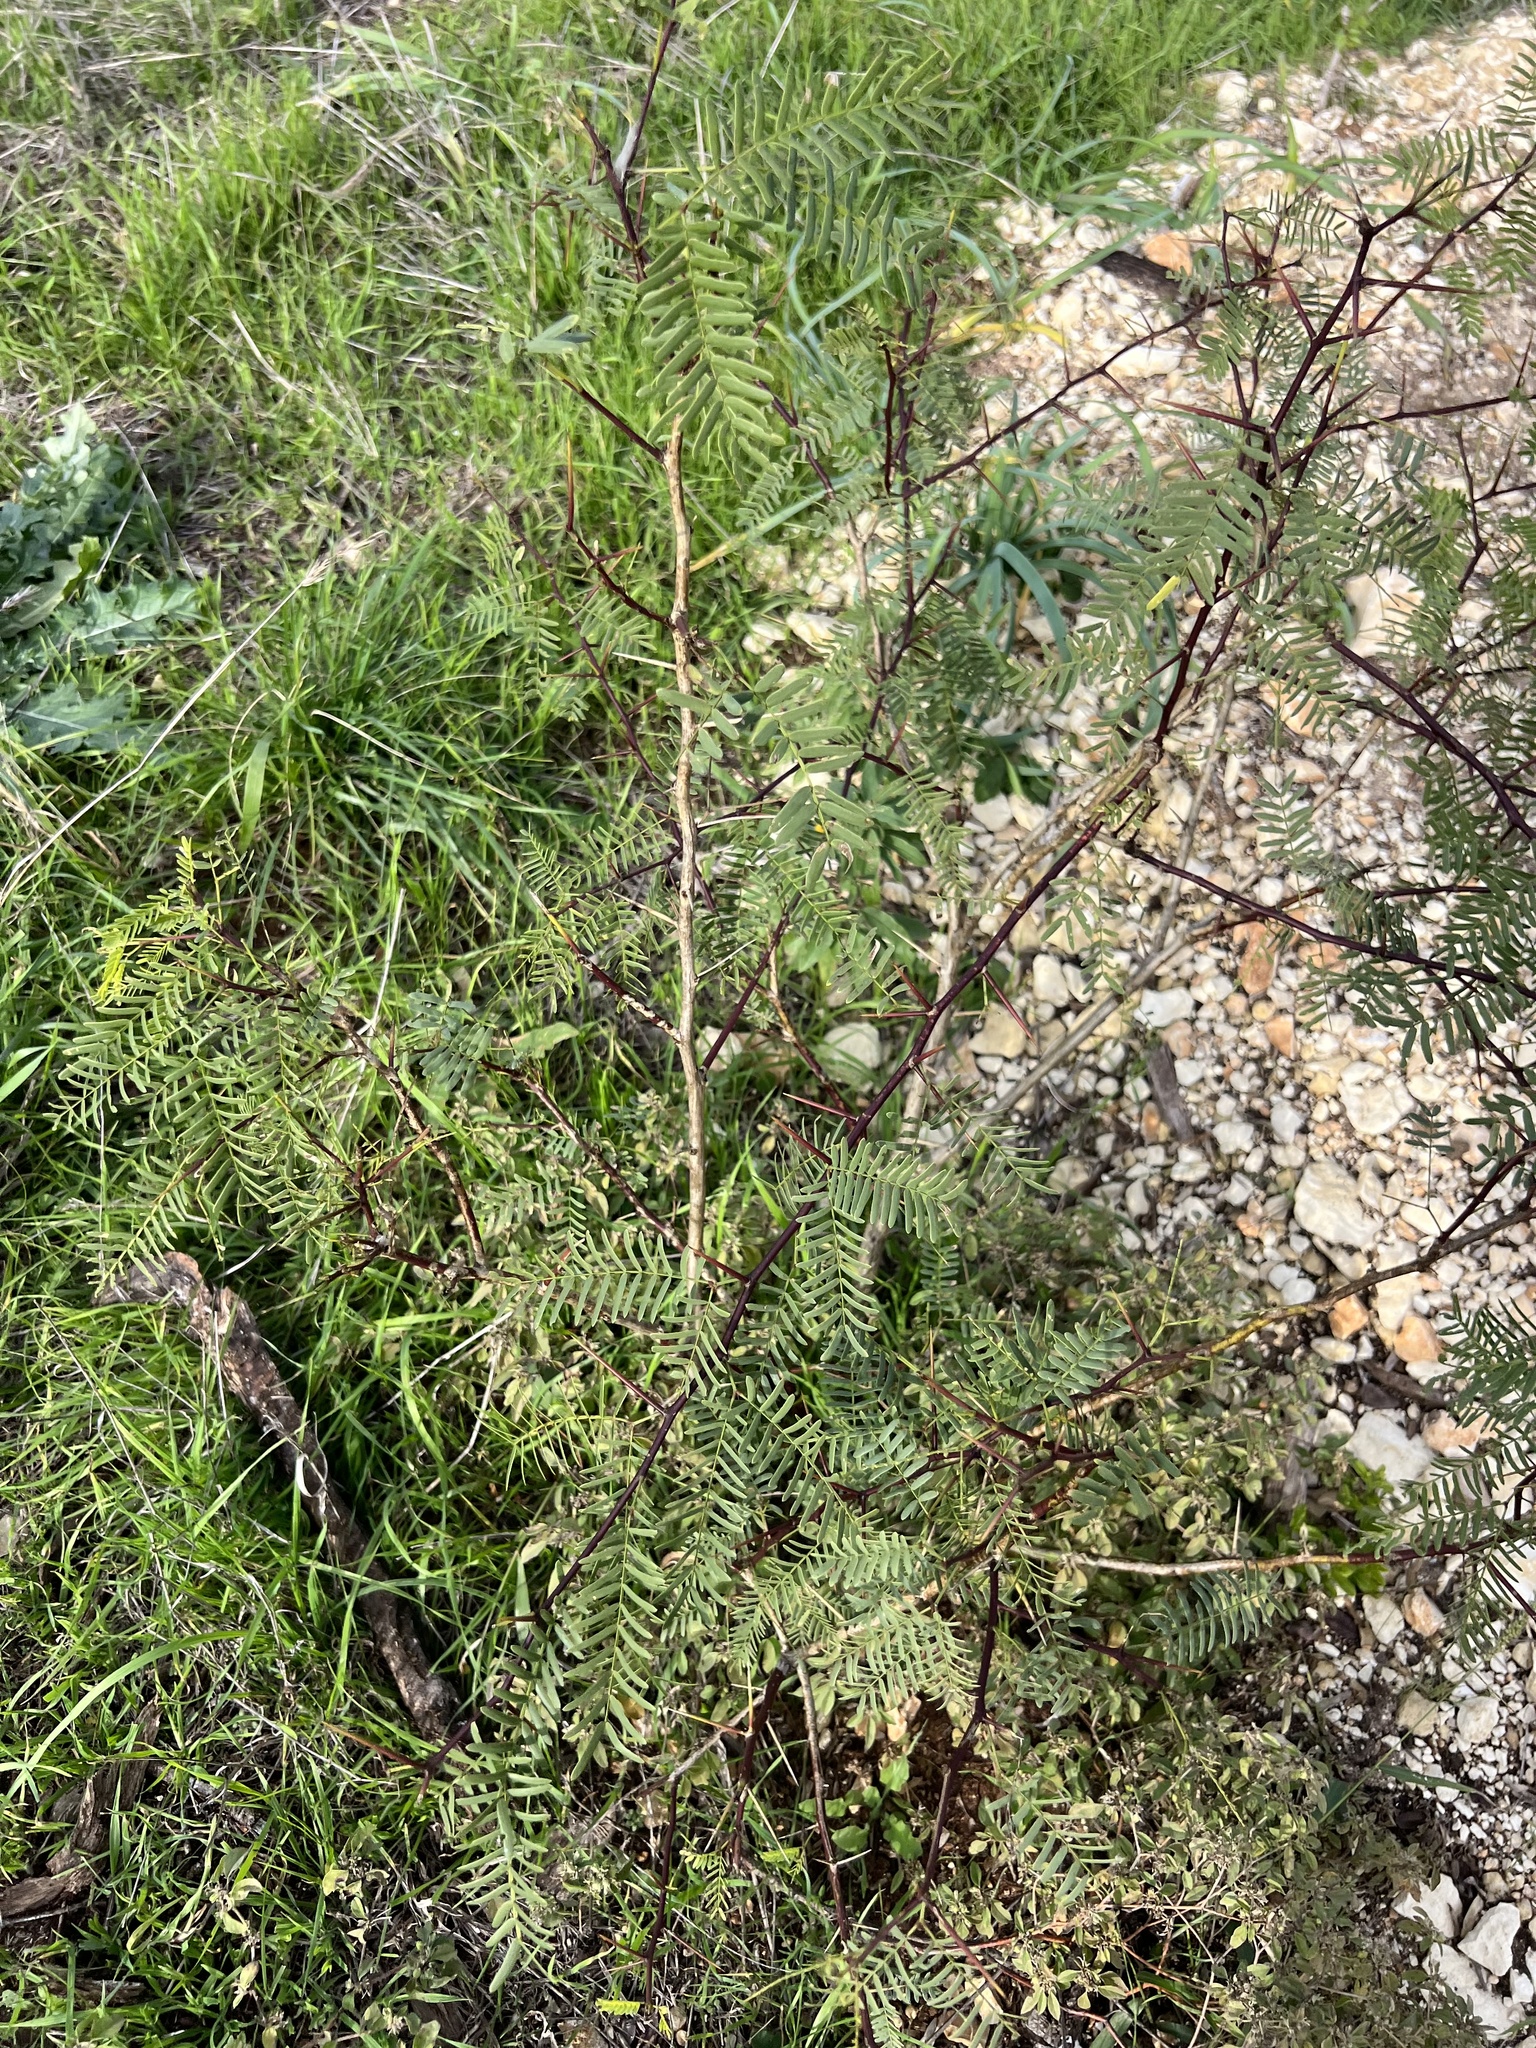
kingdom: Plantae
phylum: Tracheophyta
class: Magnoliopsida
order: Fabales
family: Fabaceae
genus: Prosopis
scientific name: Prosopis glandulosa
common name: Honey mesquite
